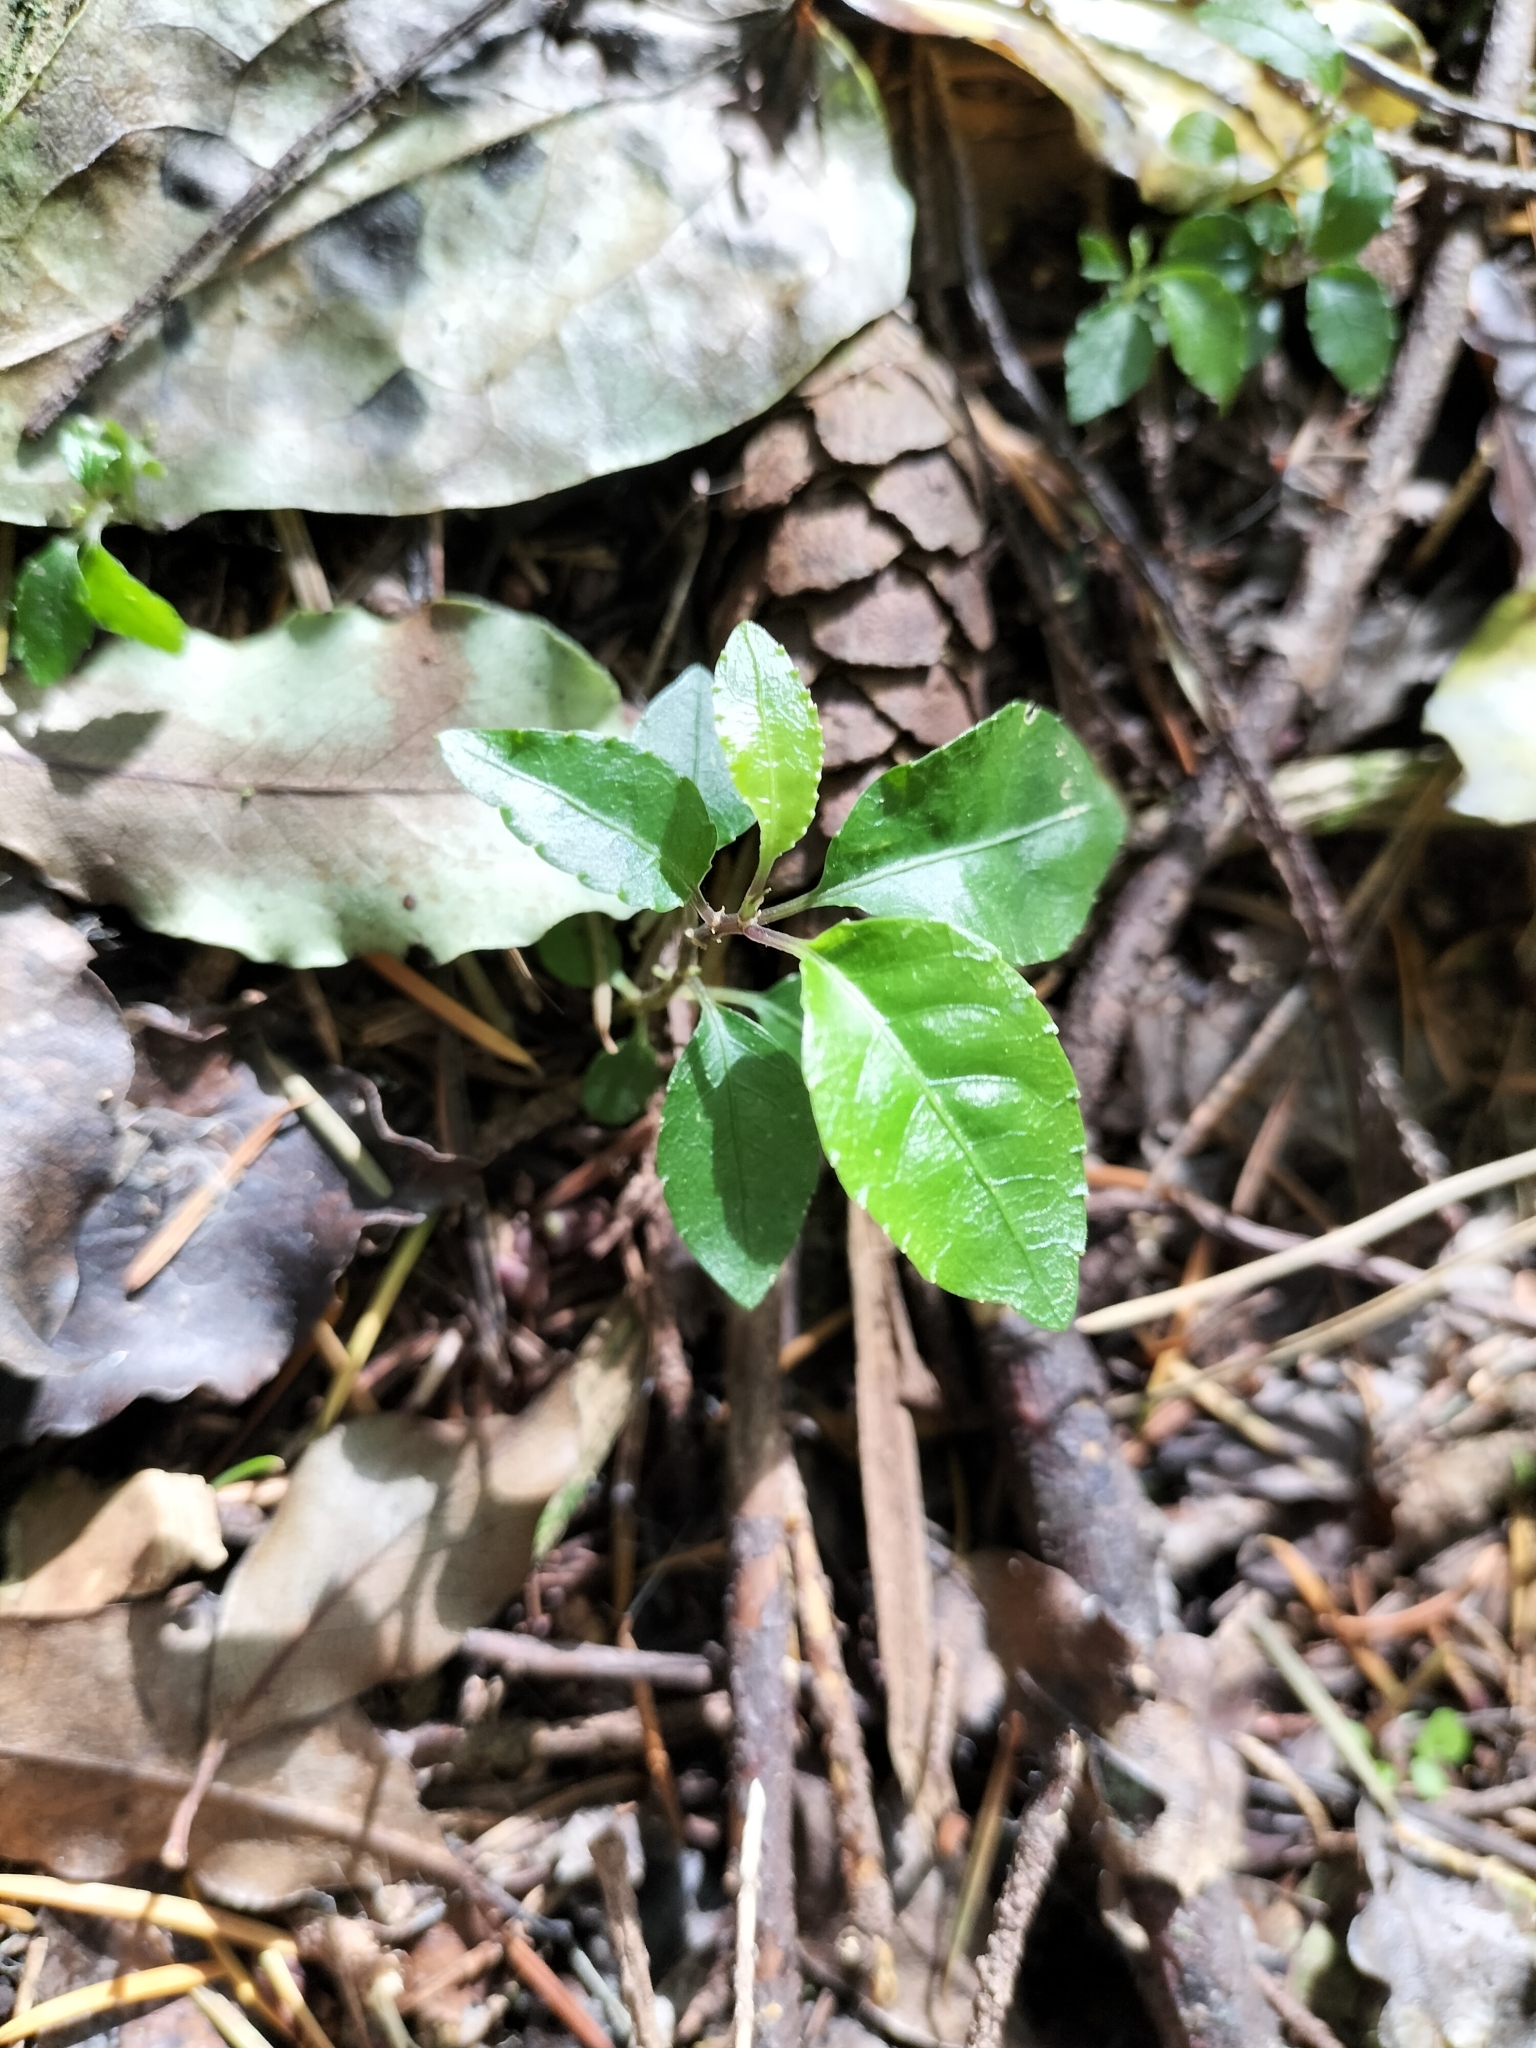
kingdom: Plantae
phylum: Tracheophyta
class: Magnoliopsida
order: Malpighiales
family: Violaceae
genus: Melicytus
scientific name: Melicytus ramiflorus
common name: Mahoe
